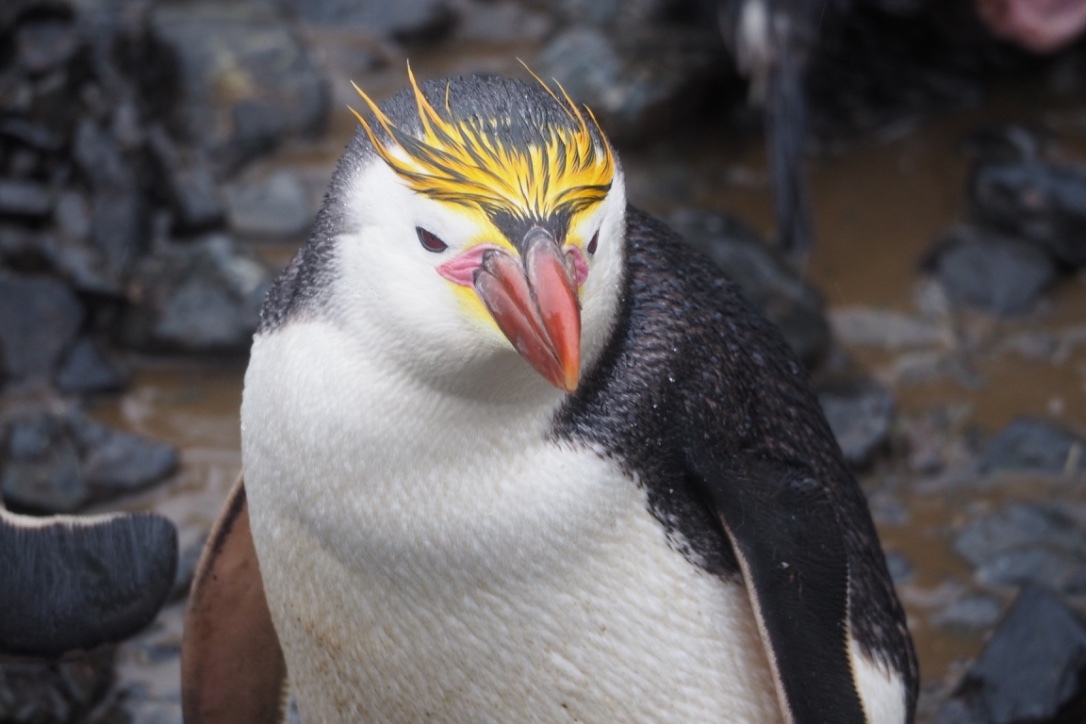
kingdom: Animalia
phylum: Chordata
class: Aves
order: Sphenisciformes
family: Spheniscidae
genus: Eudyptes
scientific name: Eudyptes schlegeli
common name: Royal penguin
